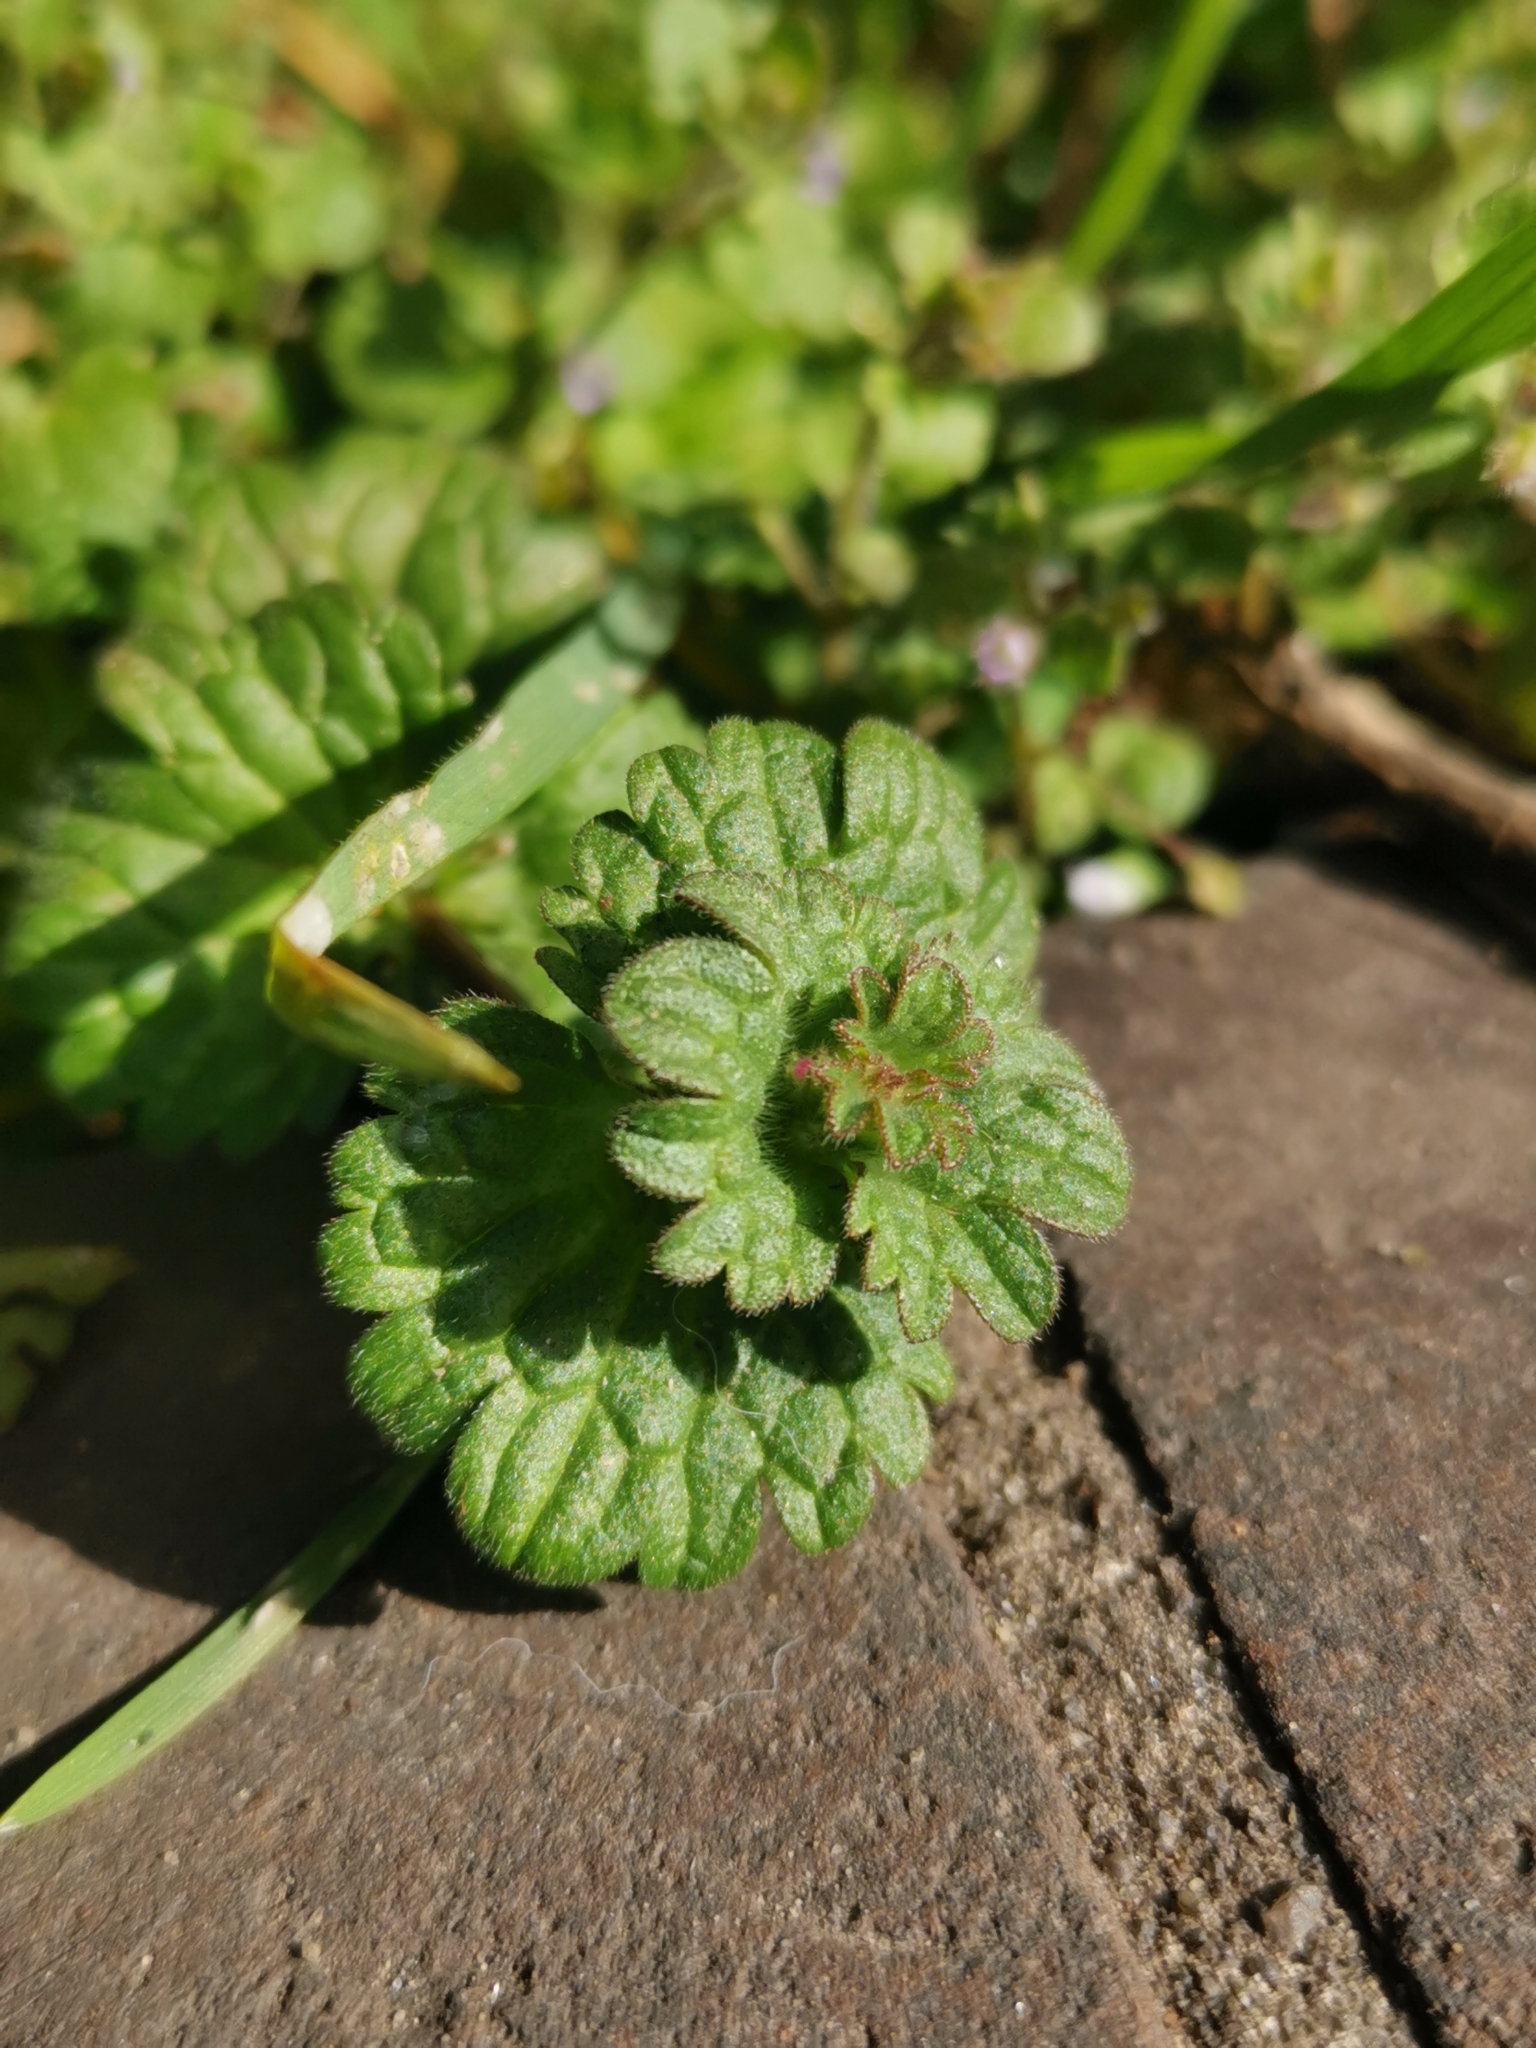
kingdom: Plantae
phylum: Tracheophyta
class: Magnoliopsida
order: Lamiales
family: Lamiaceae
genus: Lamium
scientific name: Lamium amplexicaule
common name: Henbit dead-nettle
